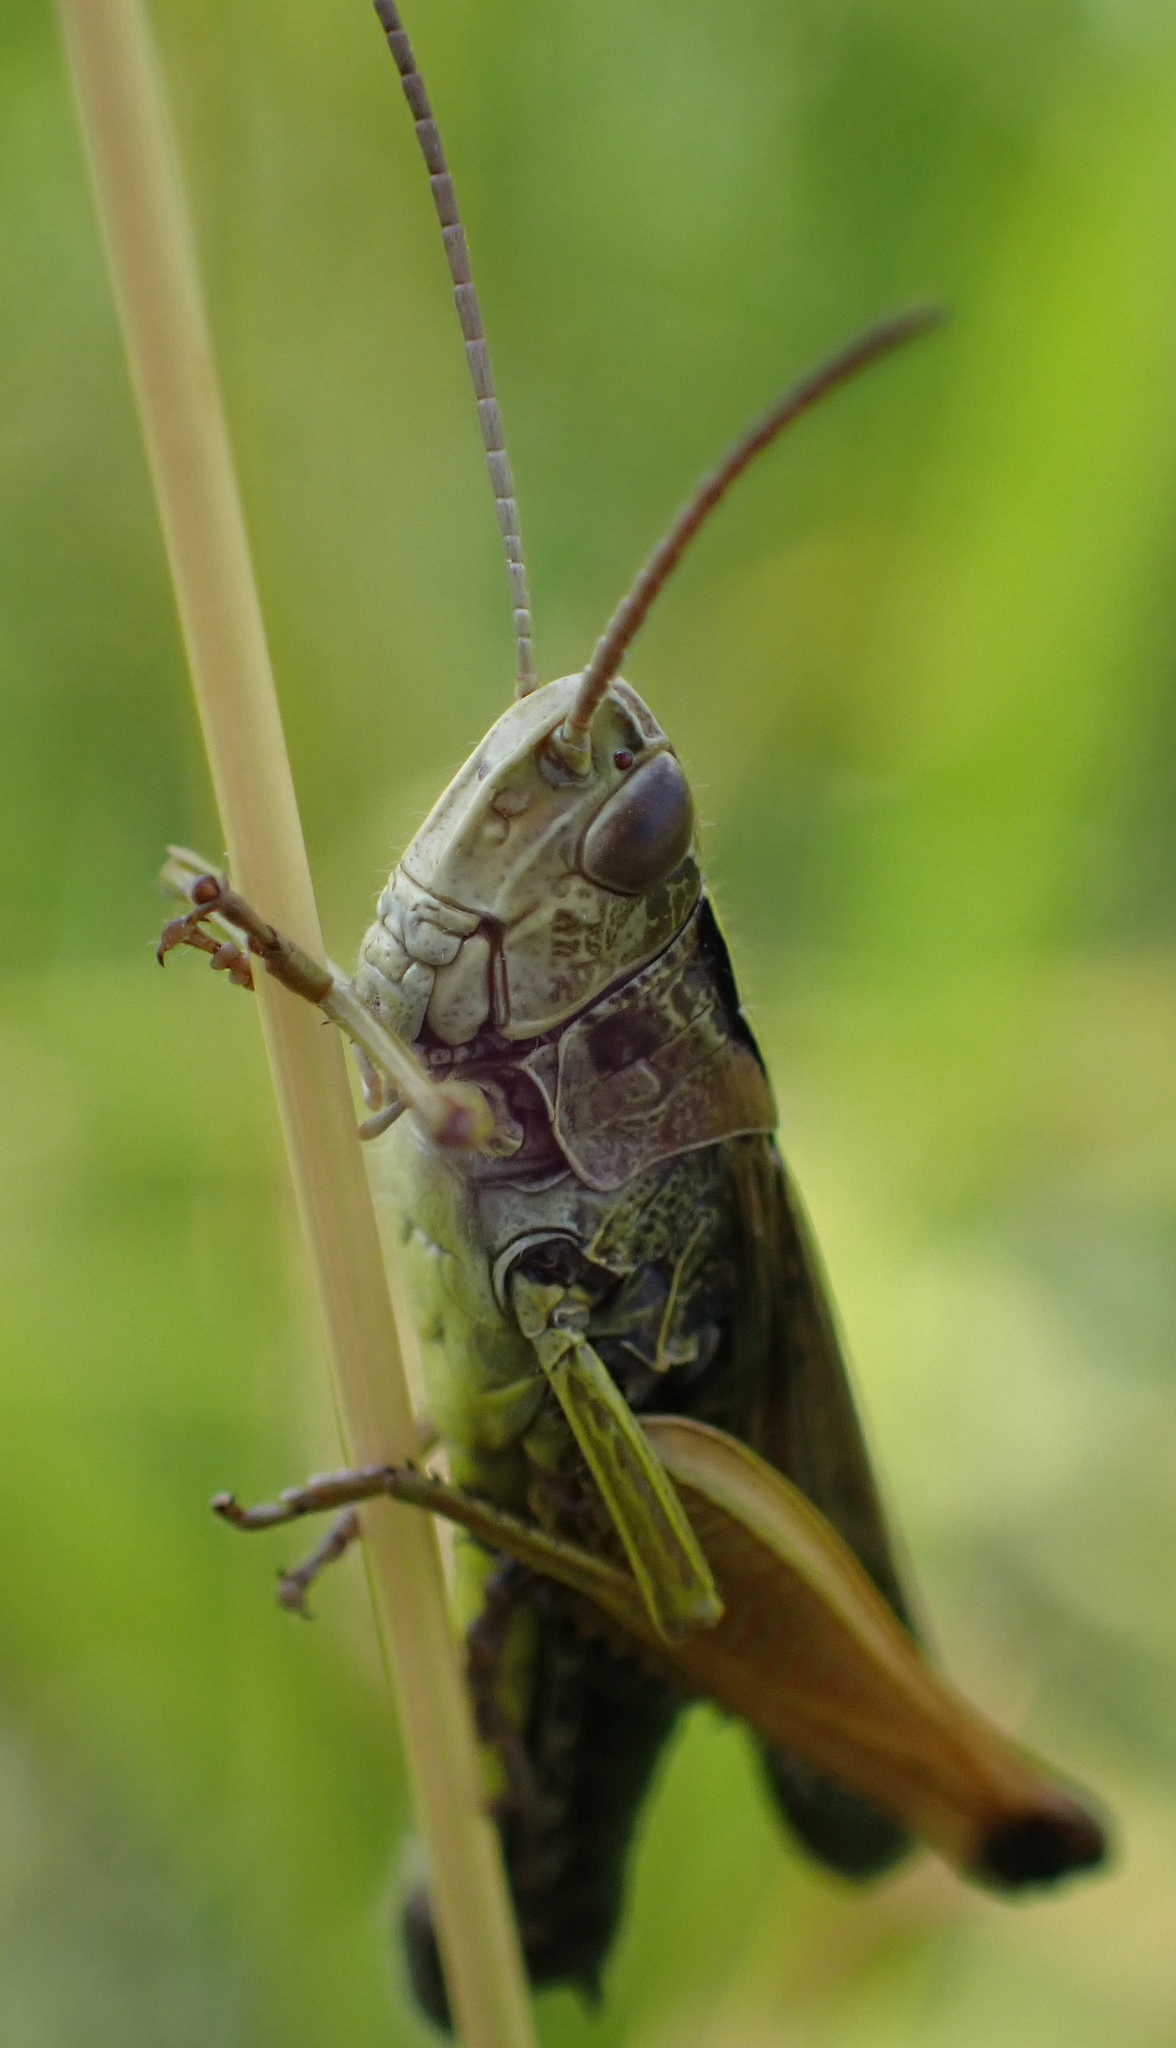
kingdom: Animalia
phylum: Arthropoda
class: Insecta
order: Orthoptera
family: Acrididae
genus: Omocestus
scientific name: Omocestus viridulus
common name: Common green grasshopper
